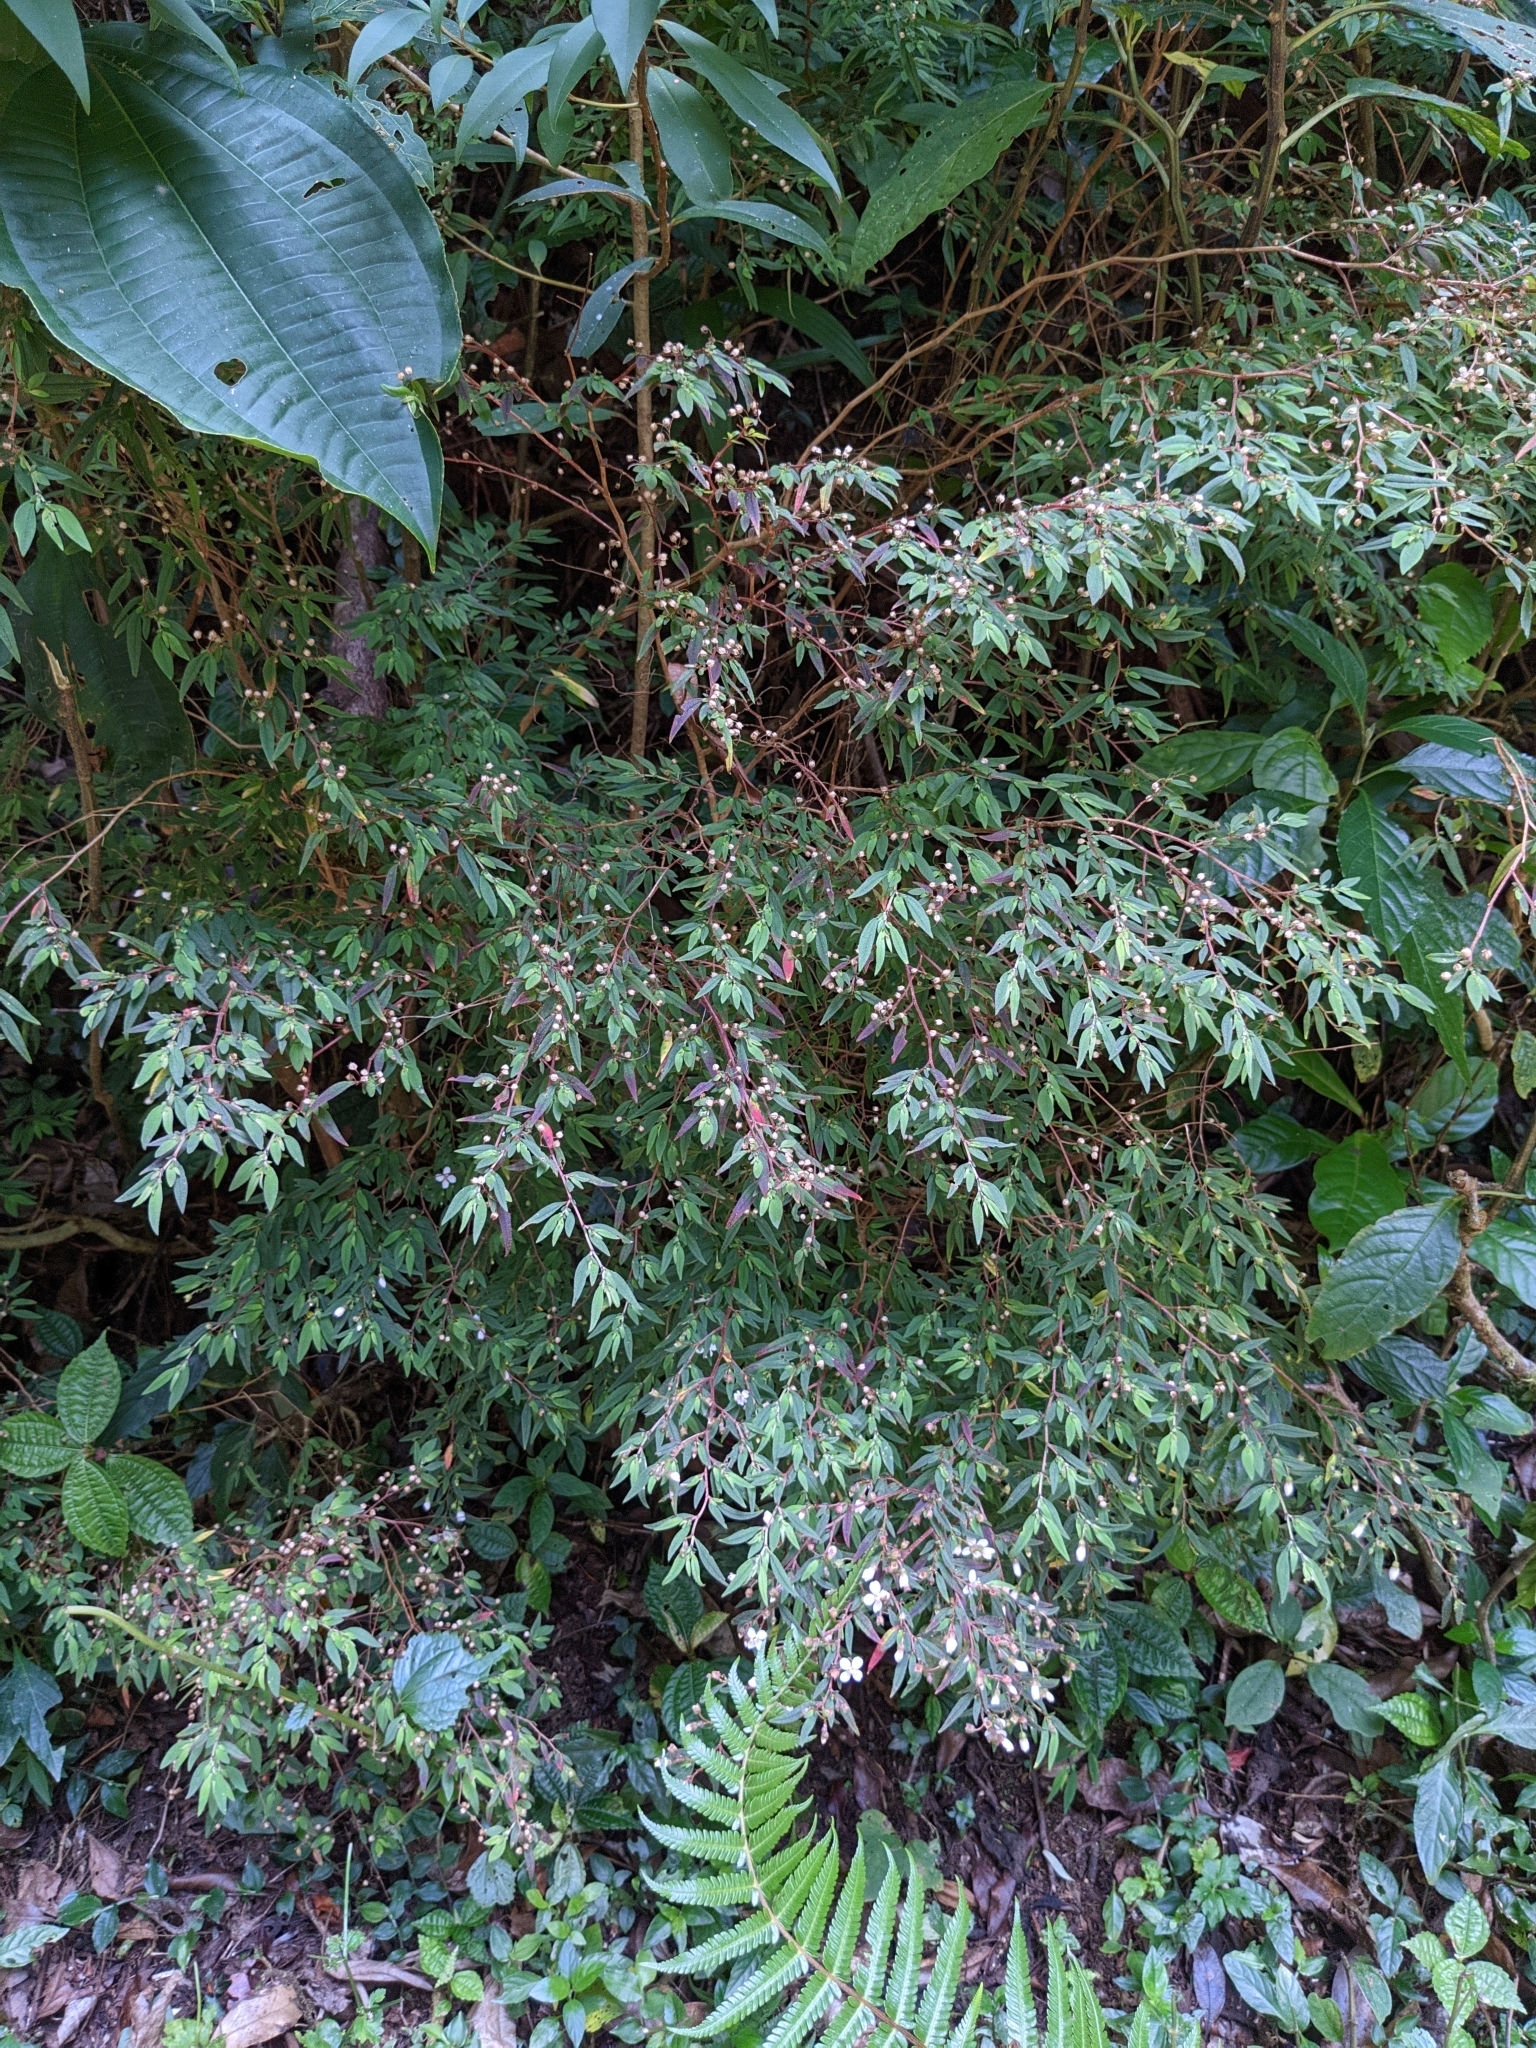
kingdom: Plantae
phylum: Tracheophyta
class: Magnoliopsida
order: Myrtales
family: Melastomataceae
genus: Centradenia
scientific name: Centradenia inaequilateralis
